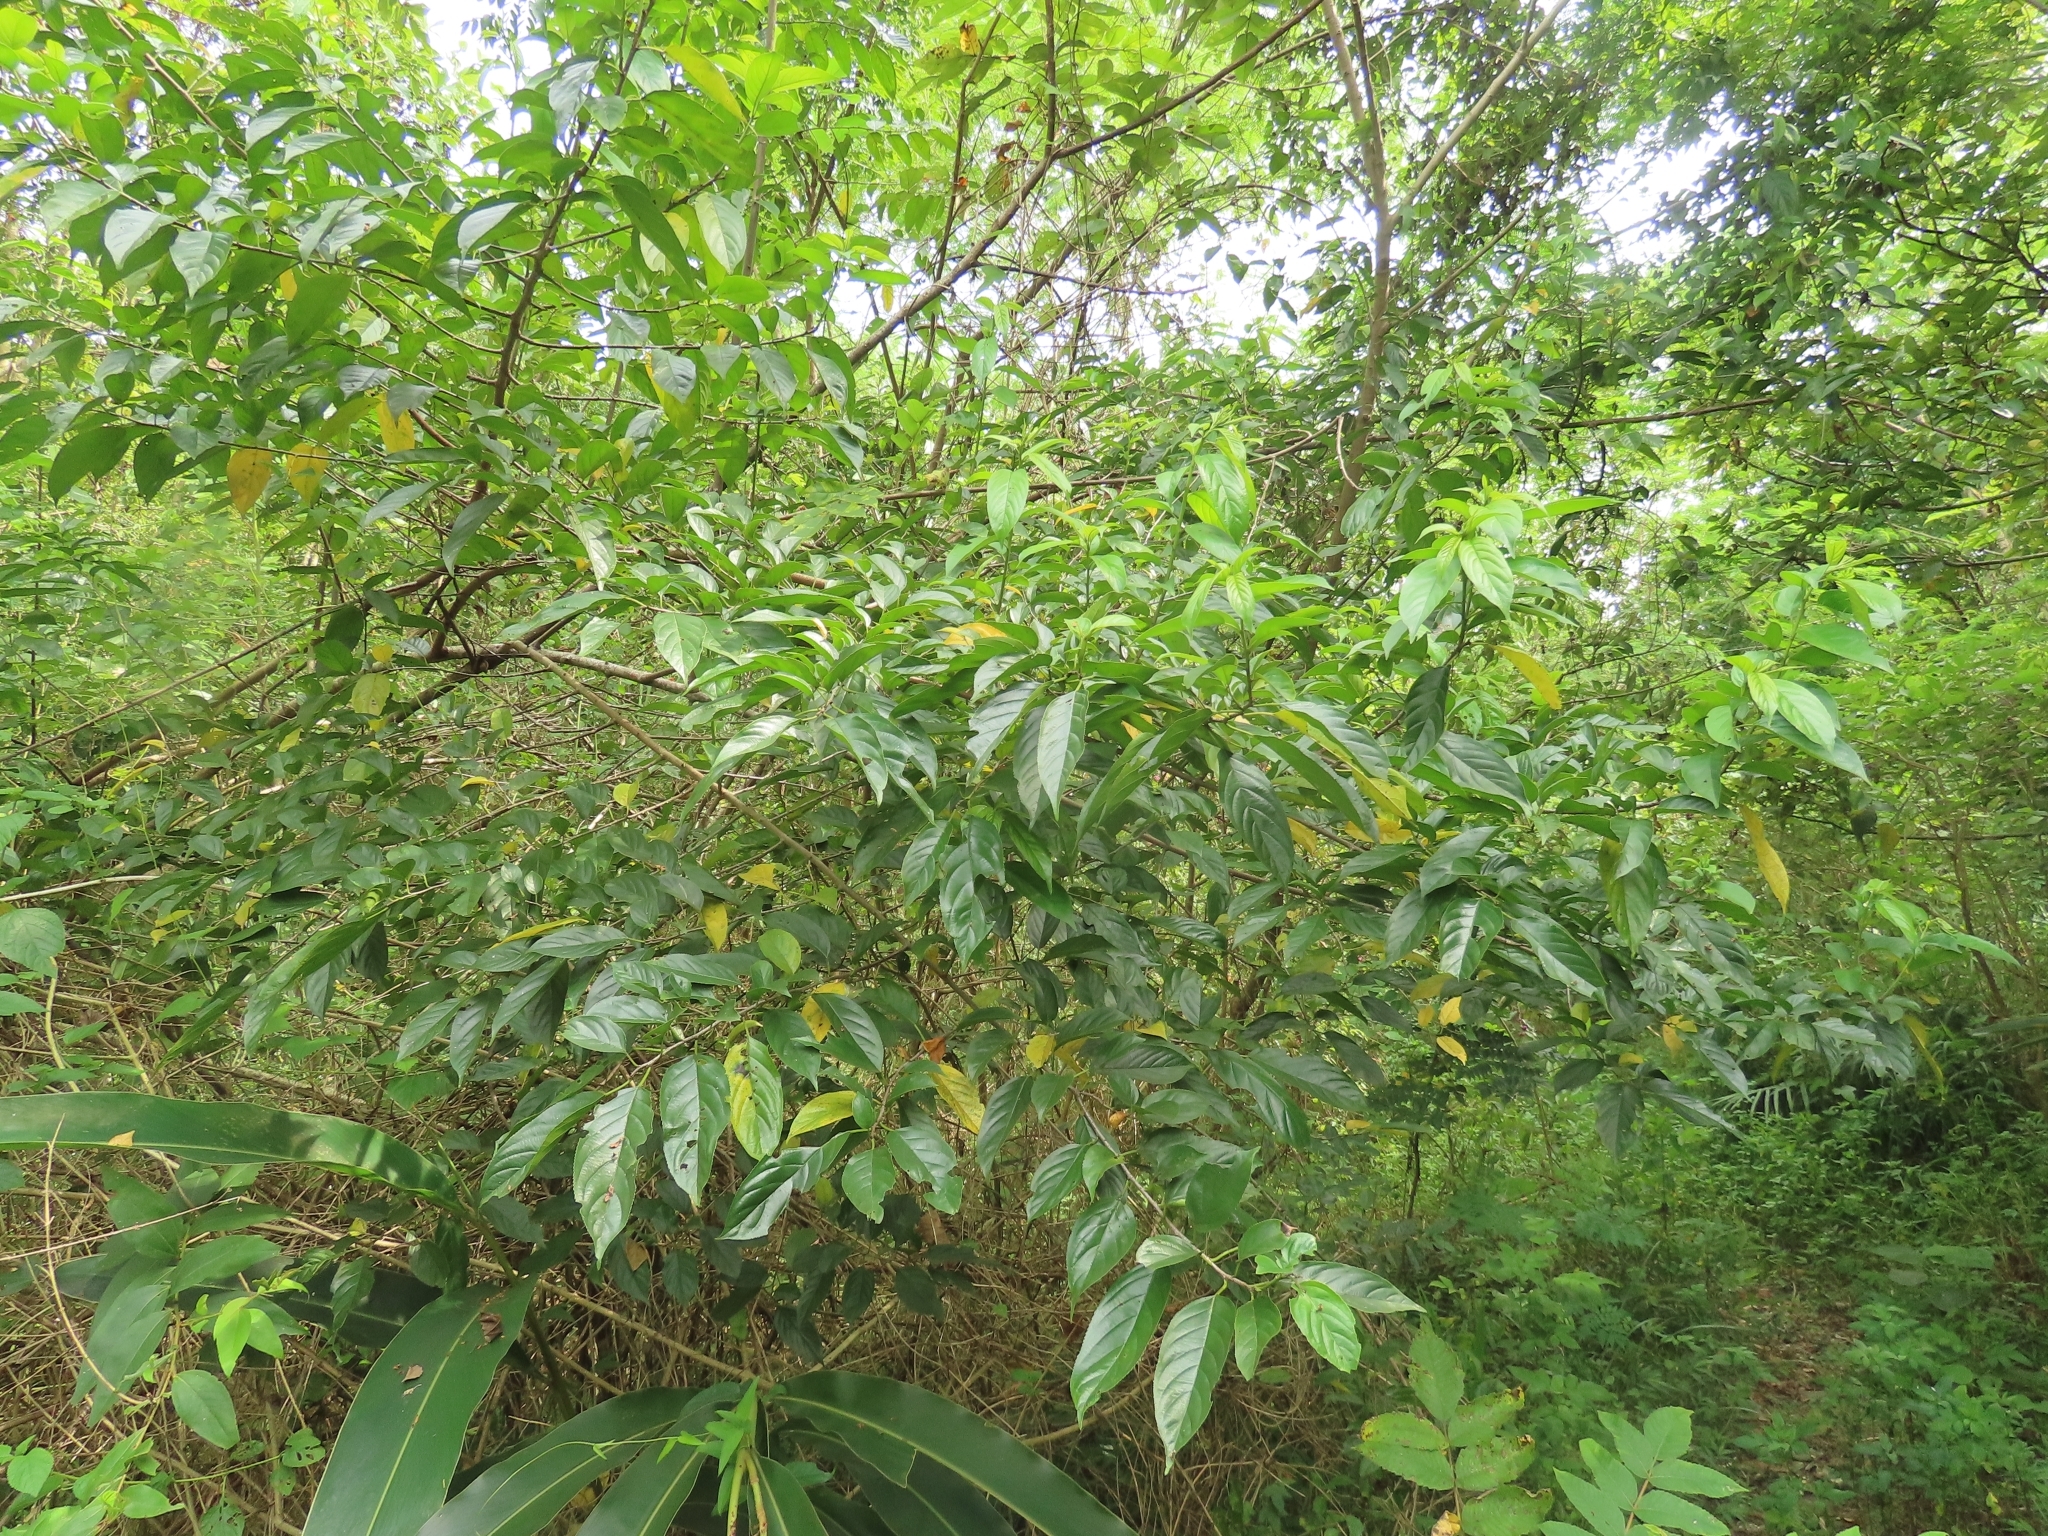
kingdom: Plantae
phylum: Tracheophyta
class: Magnoliopsida
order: Rosales
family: Rhamnaceae
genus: Rhamnus
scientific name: Rhamnus formosana
